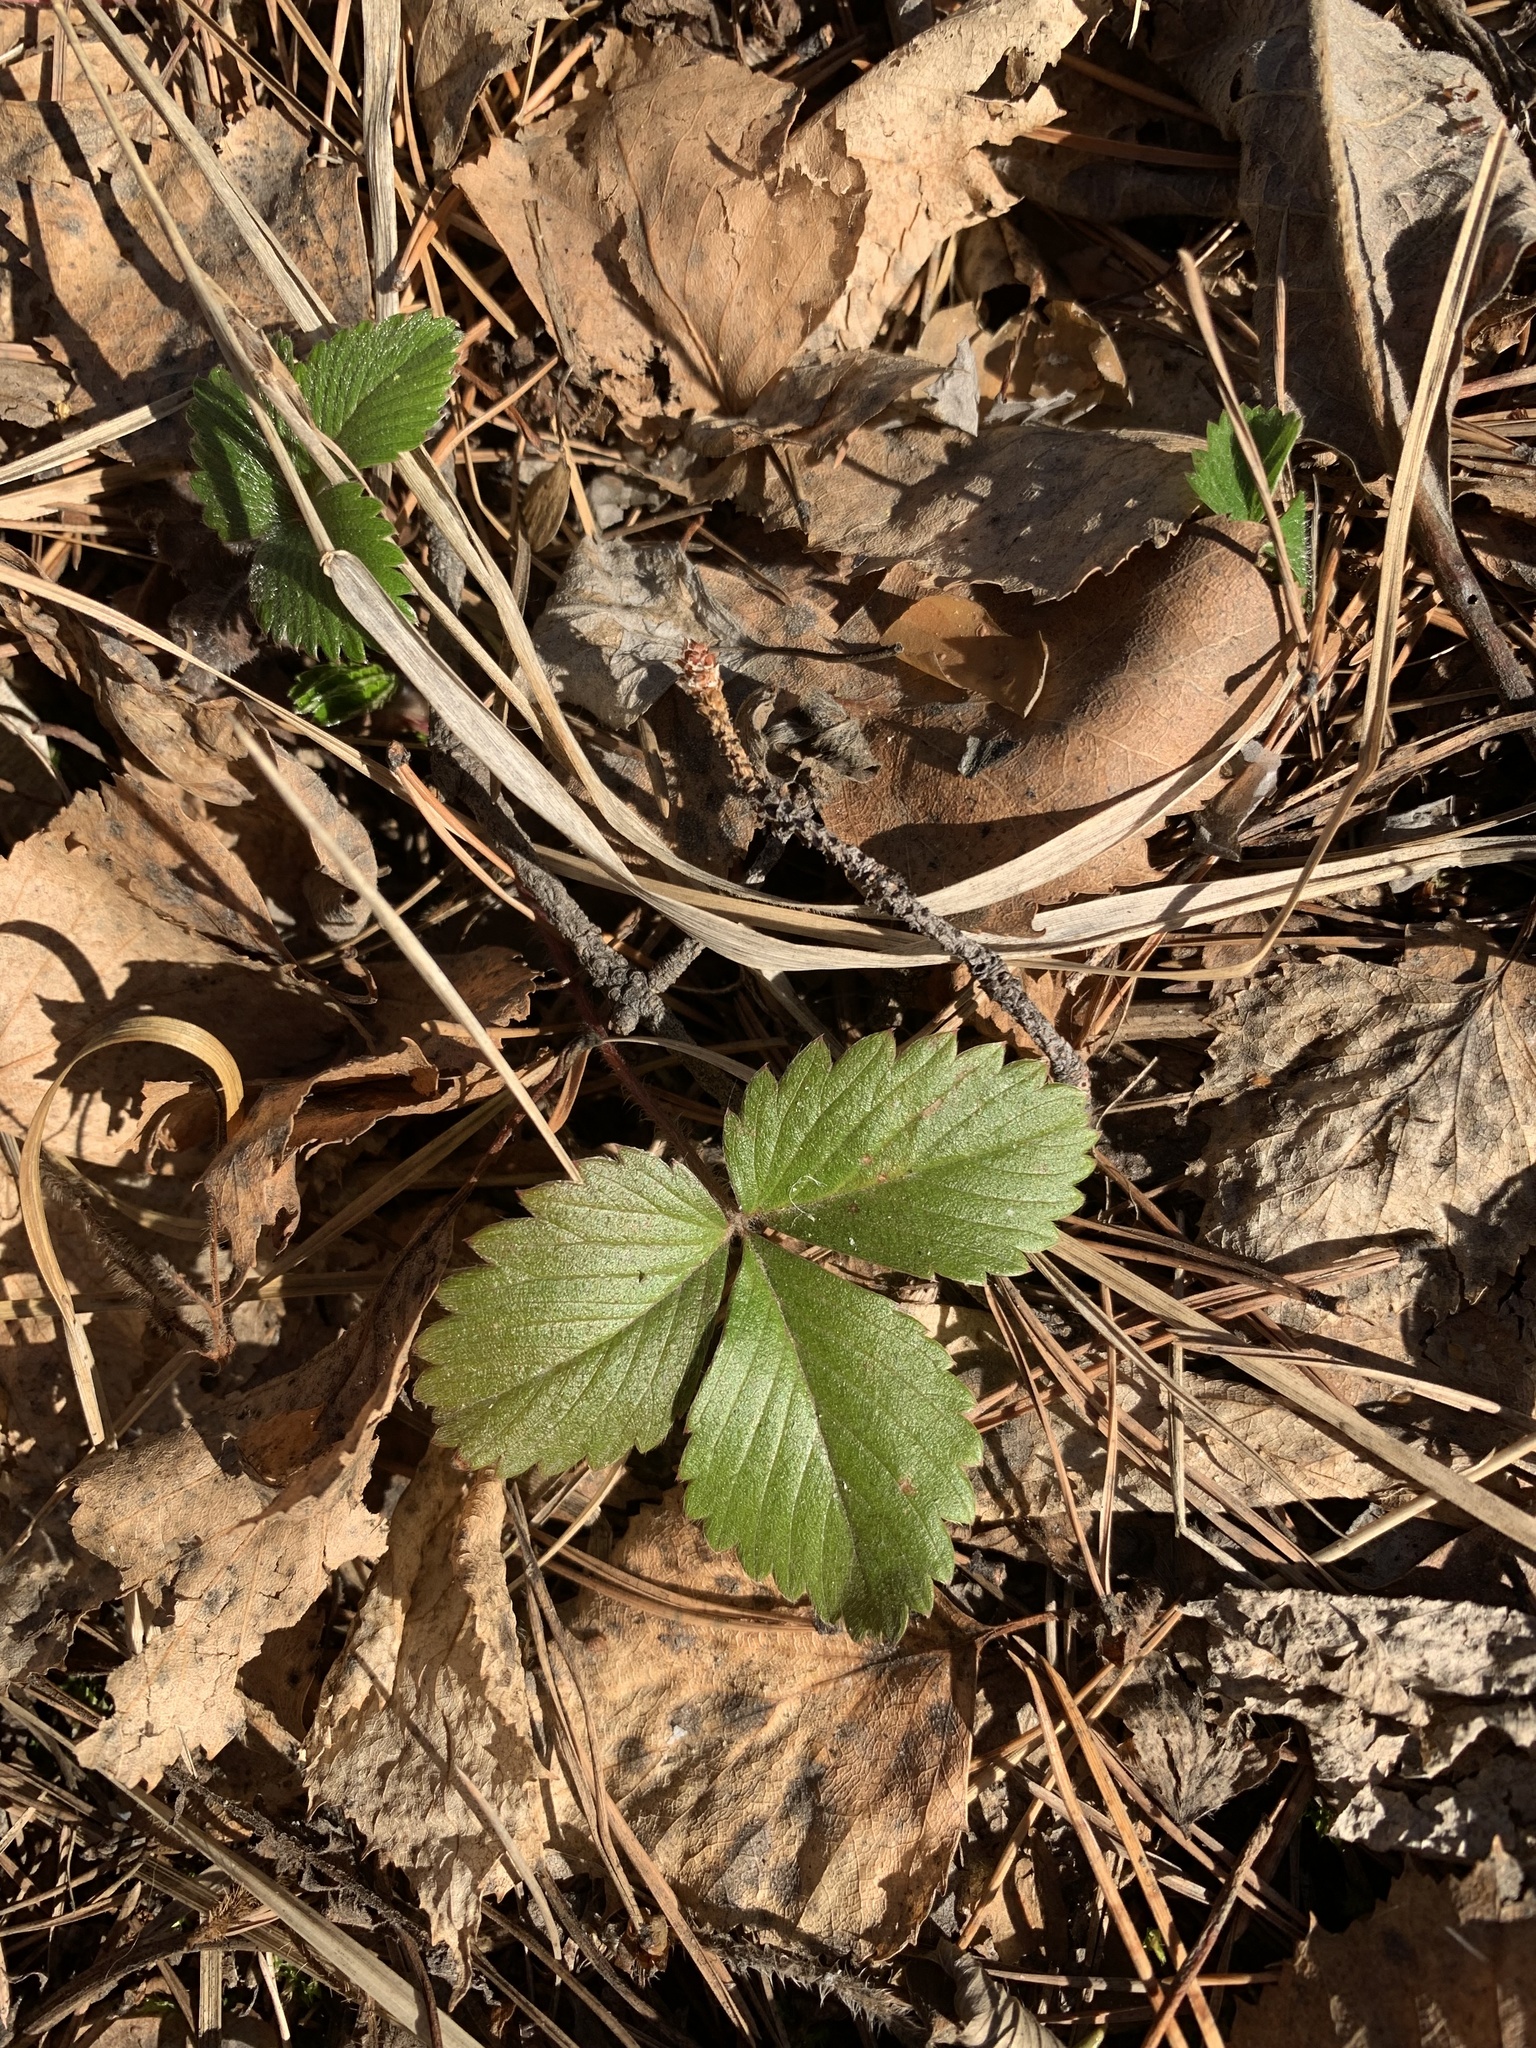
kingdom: Plantae
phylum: Tracheophyta
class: Magnoliopsida
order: Rosales
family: Rosaceae
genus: Fragaria
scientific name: Fragaria vesca
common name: Wild strawberry
